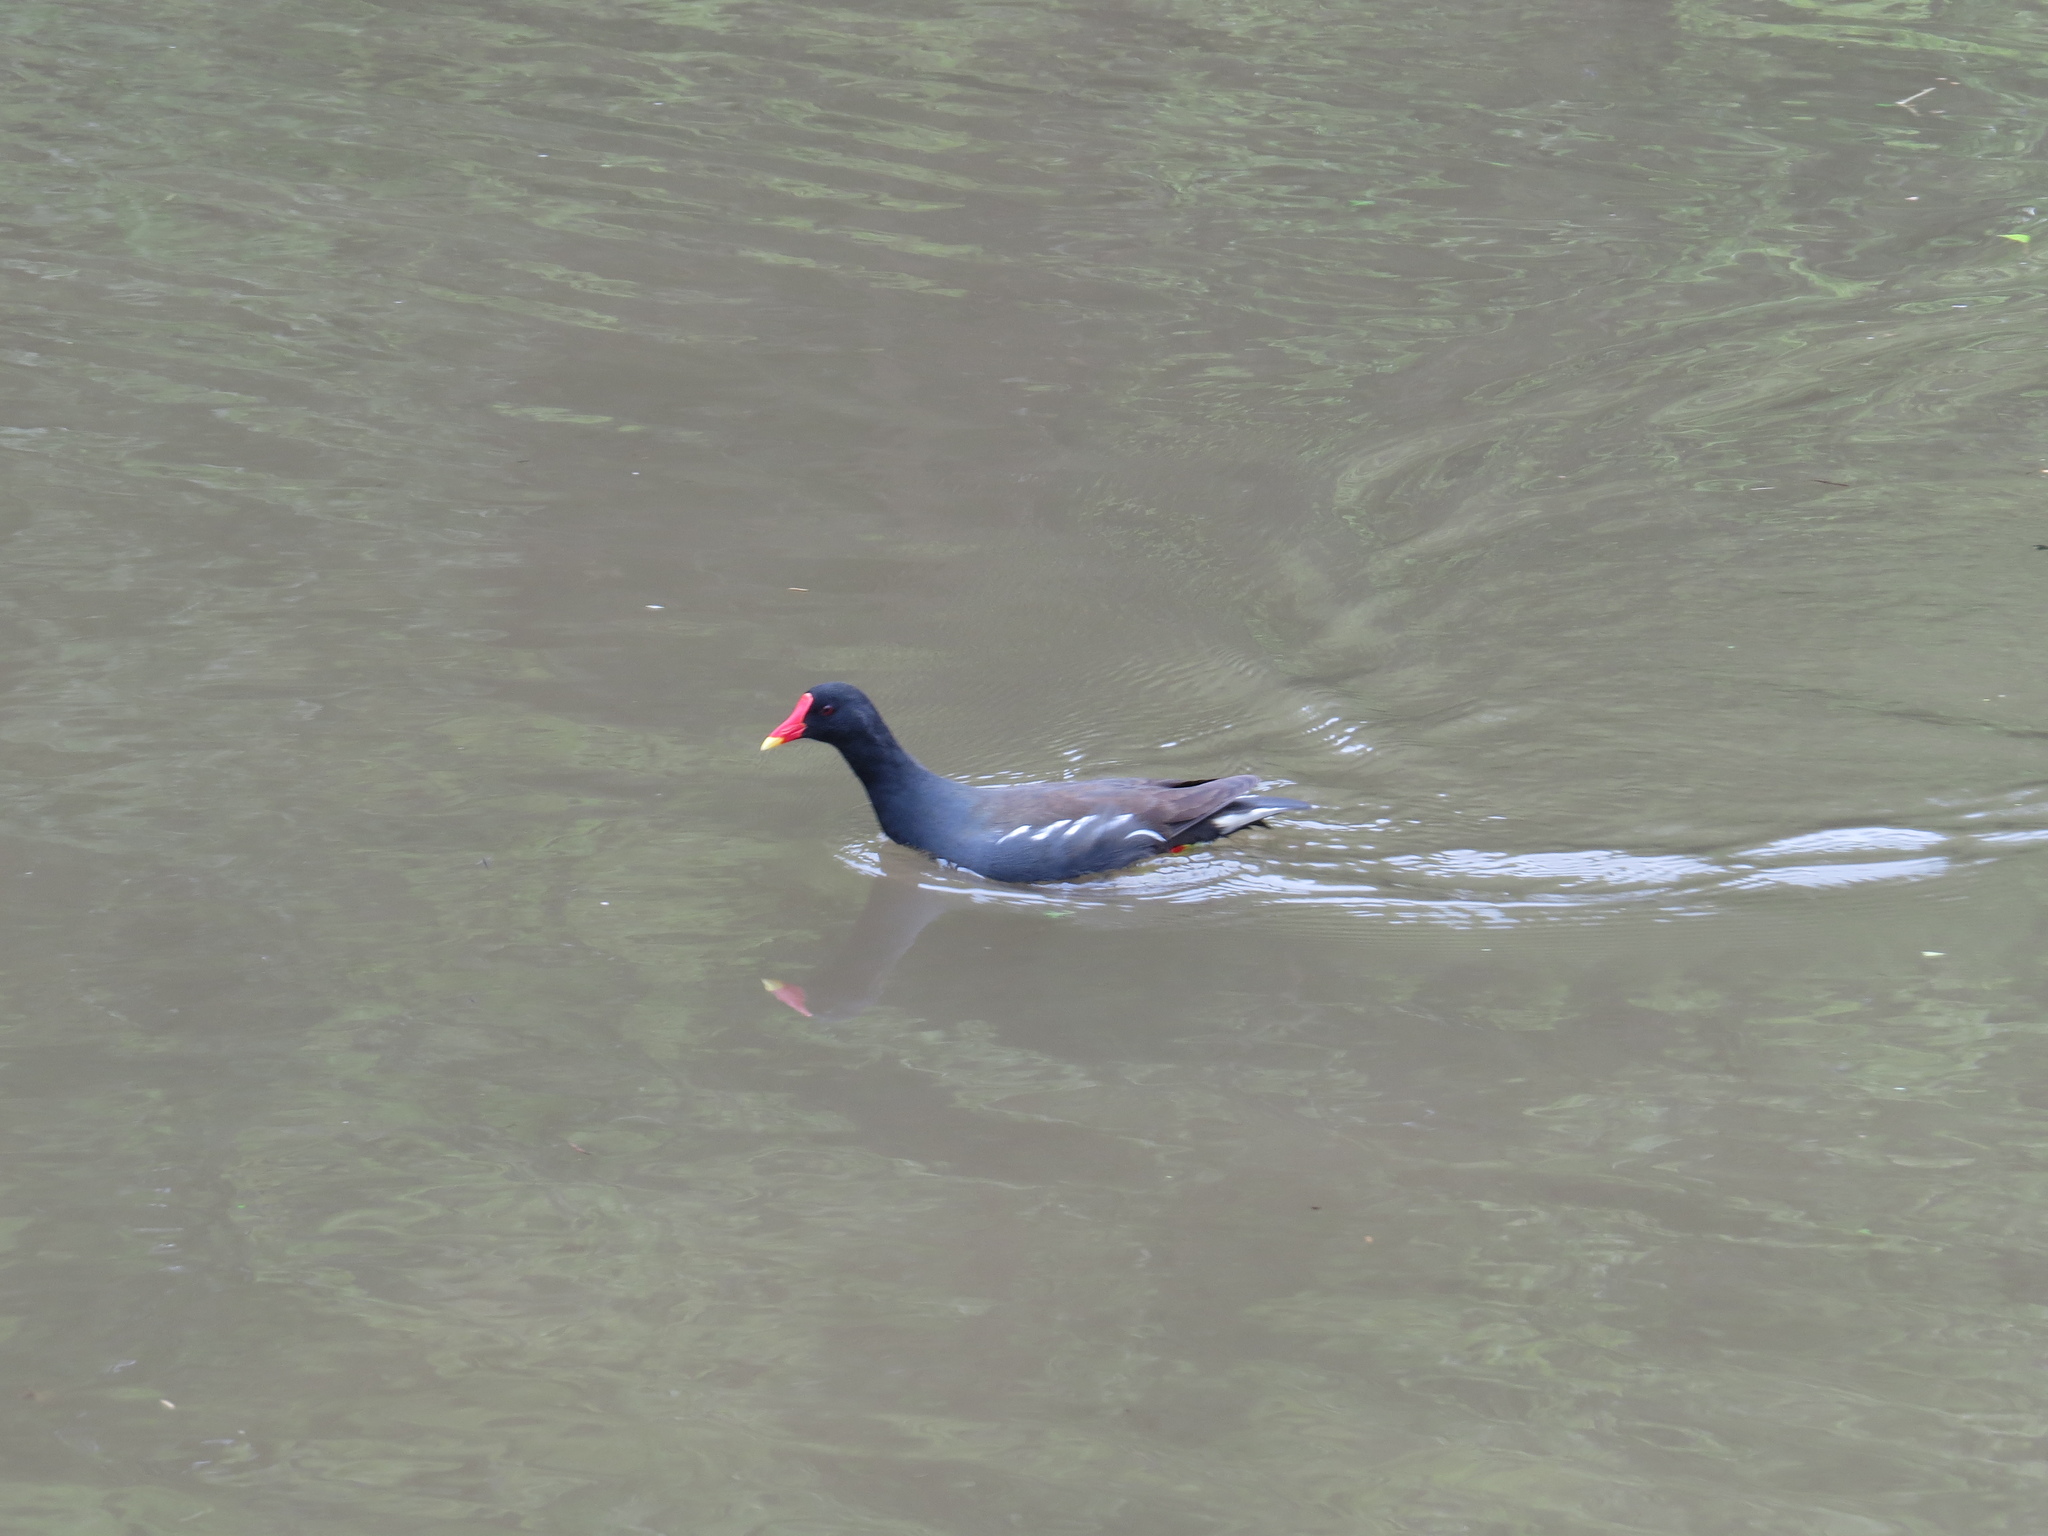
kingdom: Animalia
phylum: Chordata
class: Aves
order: Gruiformes
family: Rallidae
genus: Gallinula
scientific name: Gallinula chloropus
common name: Common moorhen
